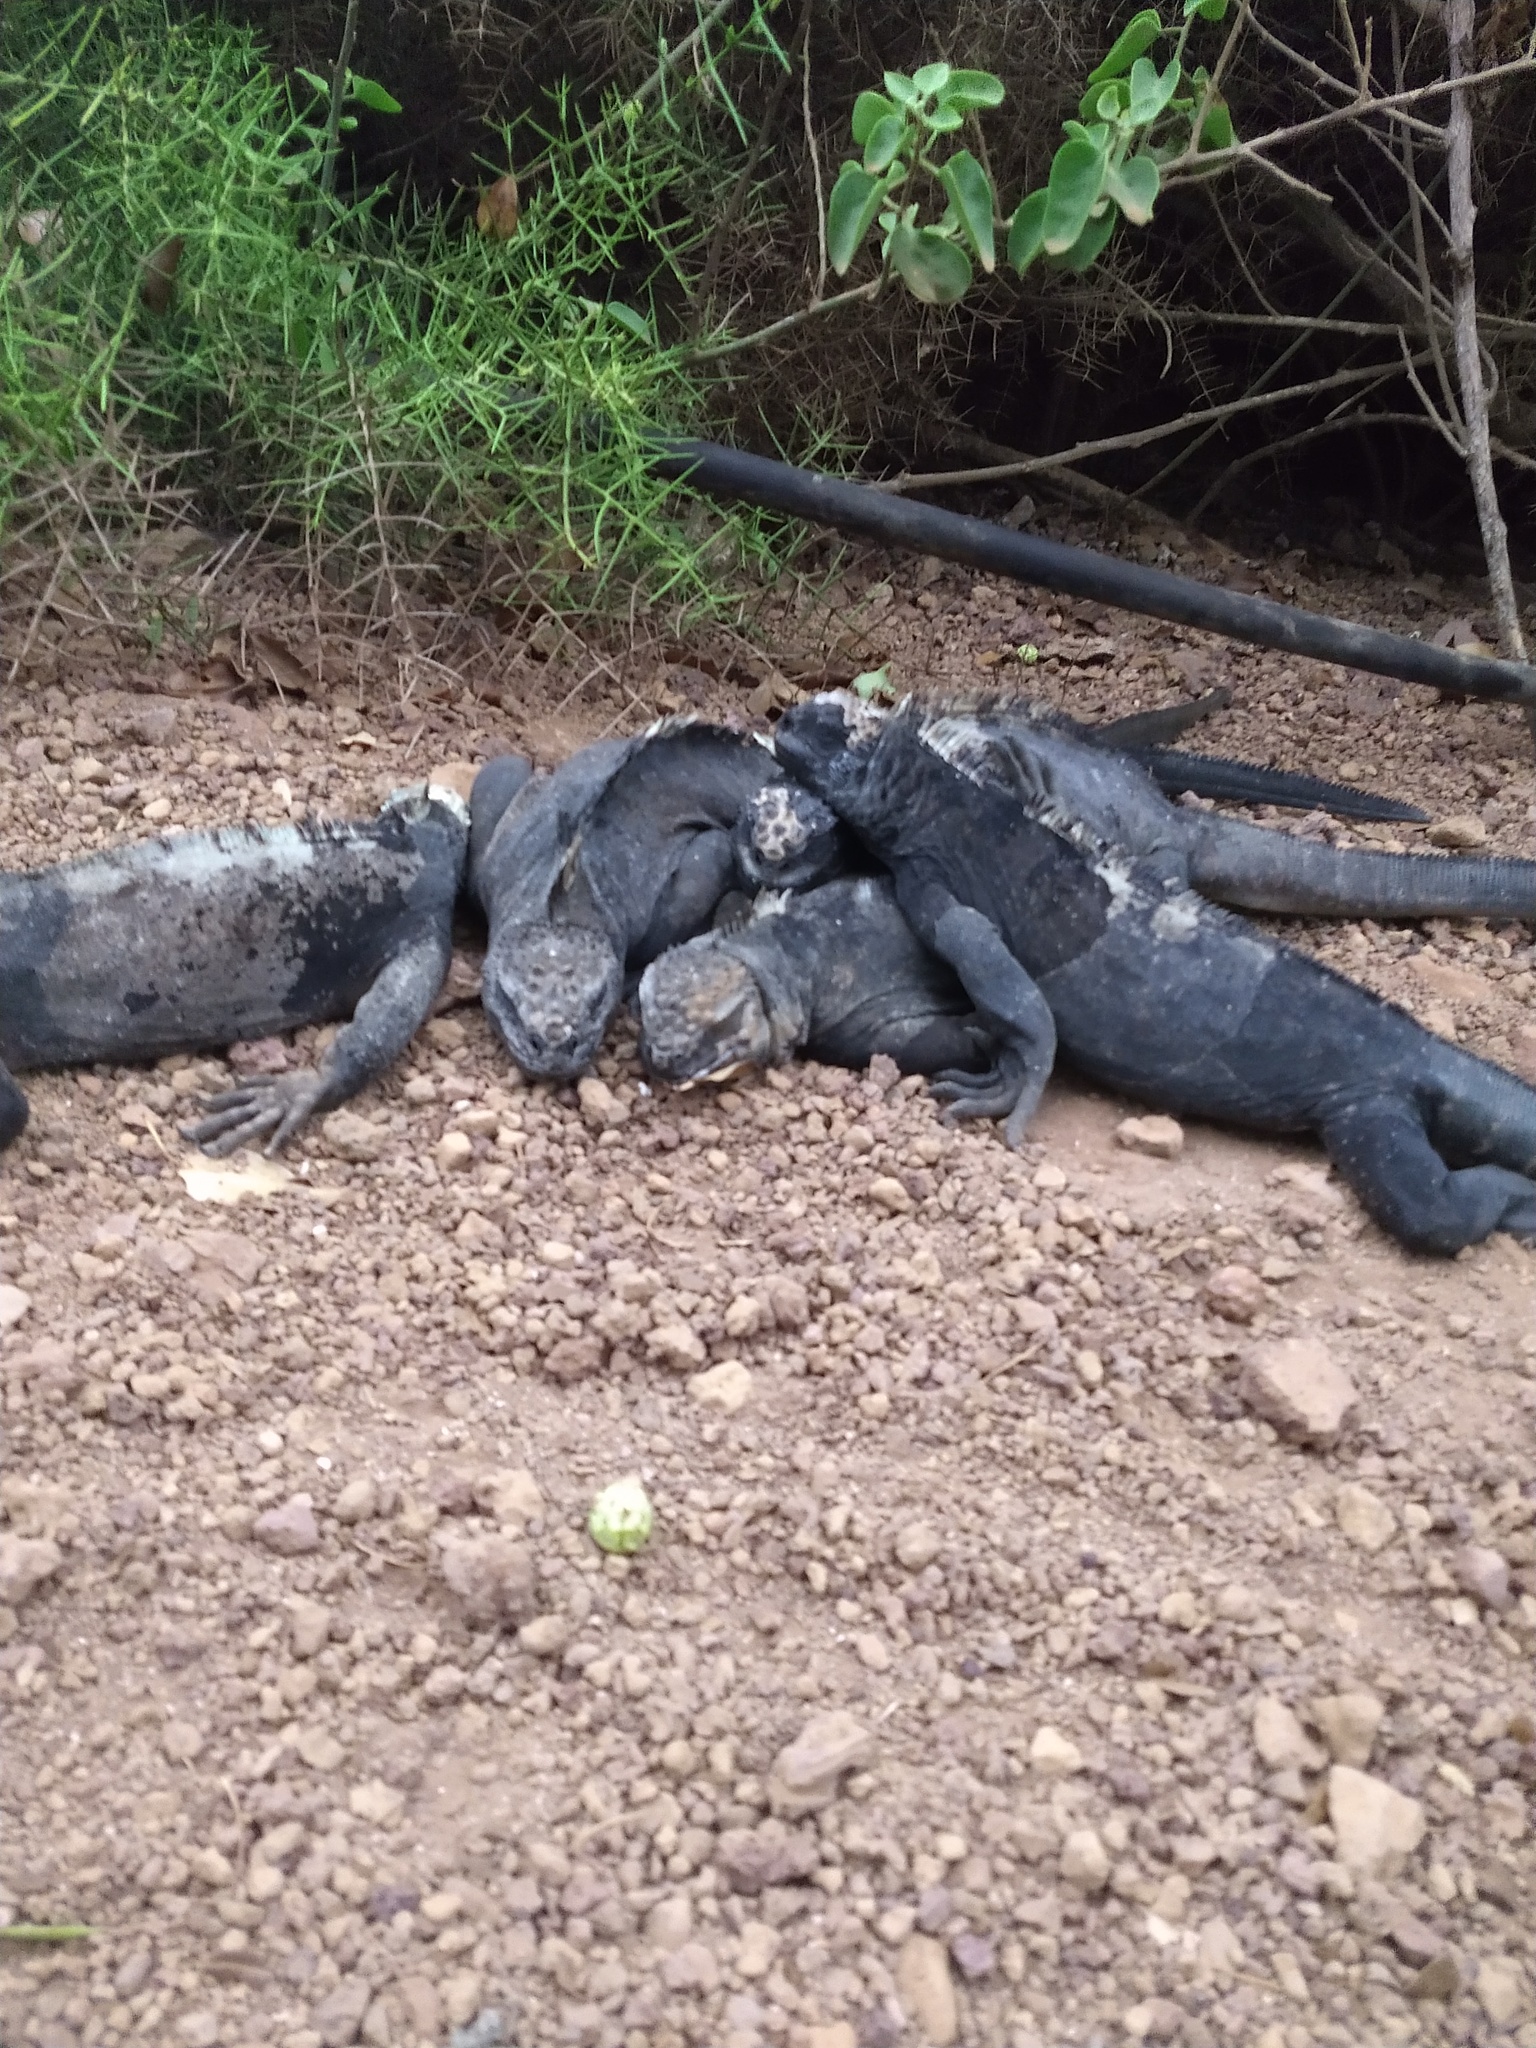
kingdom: Animalia
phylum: Chordata
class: Squamata
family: Iguanidae
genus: Amblyrhynchus
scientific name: Amblyrhynchus cristatus
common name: Marine iguana
